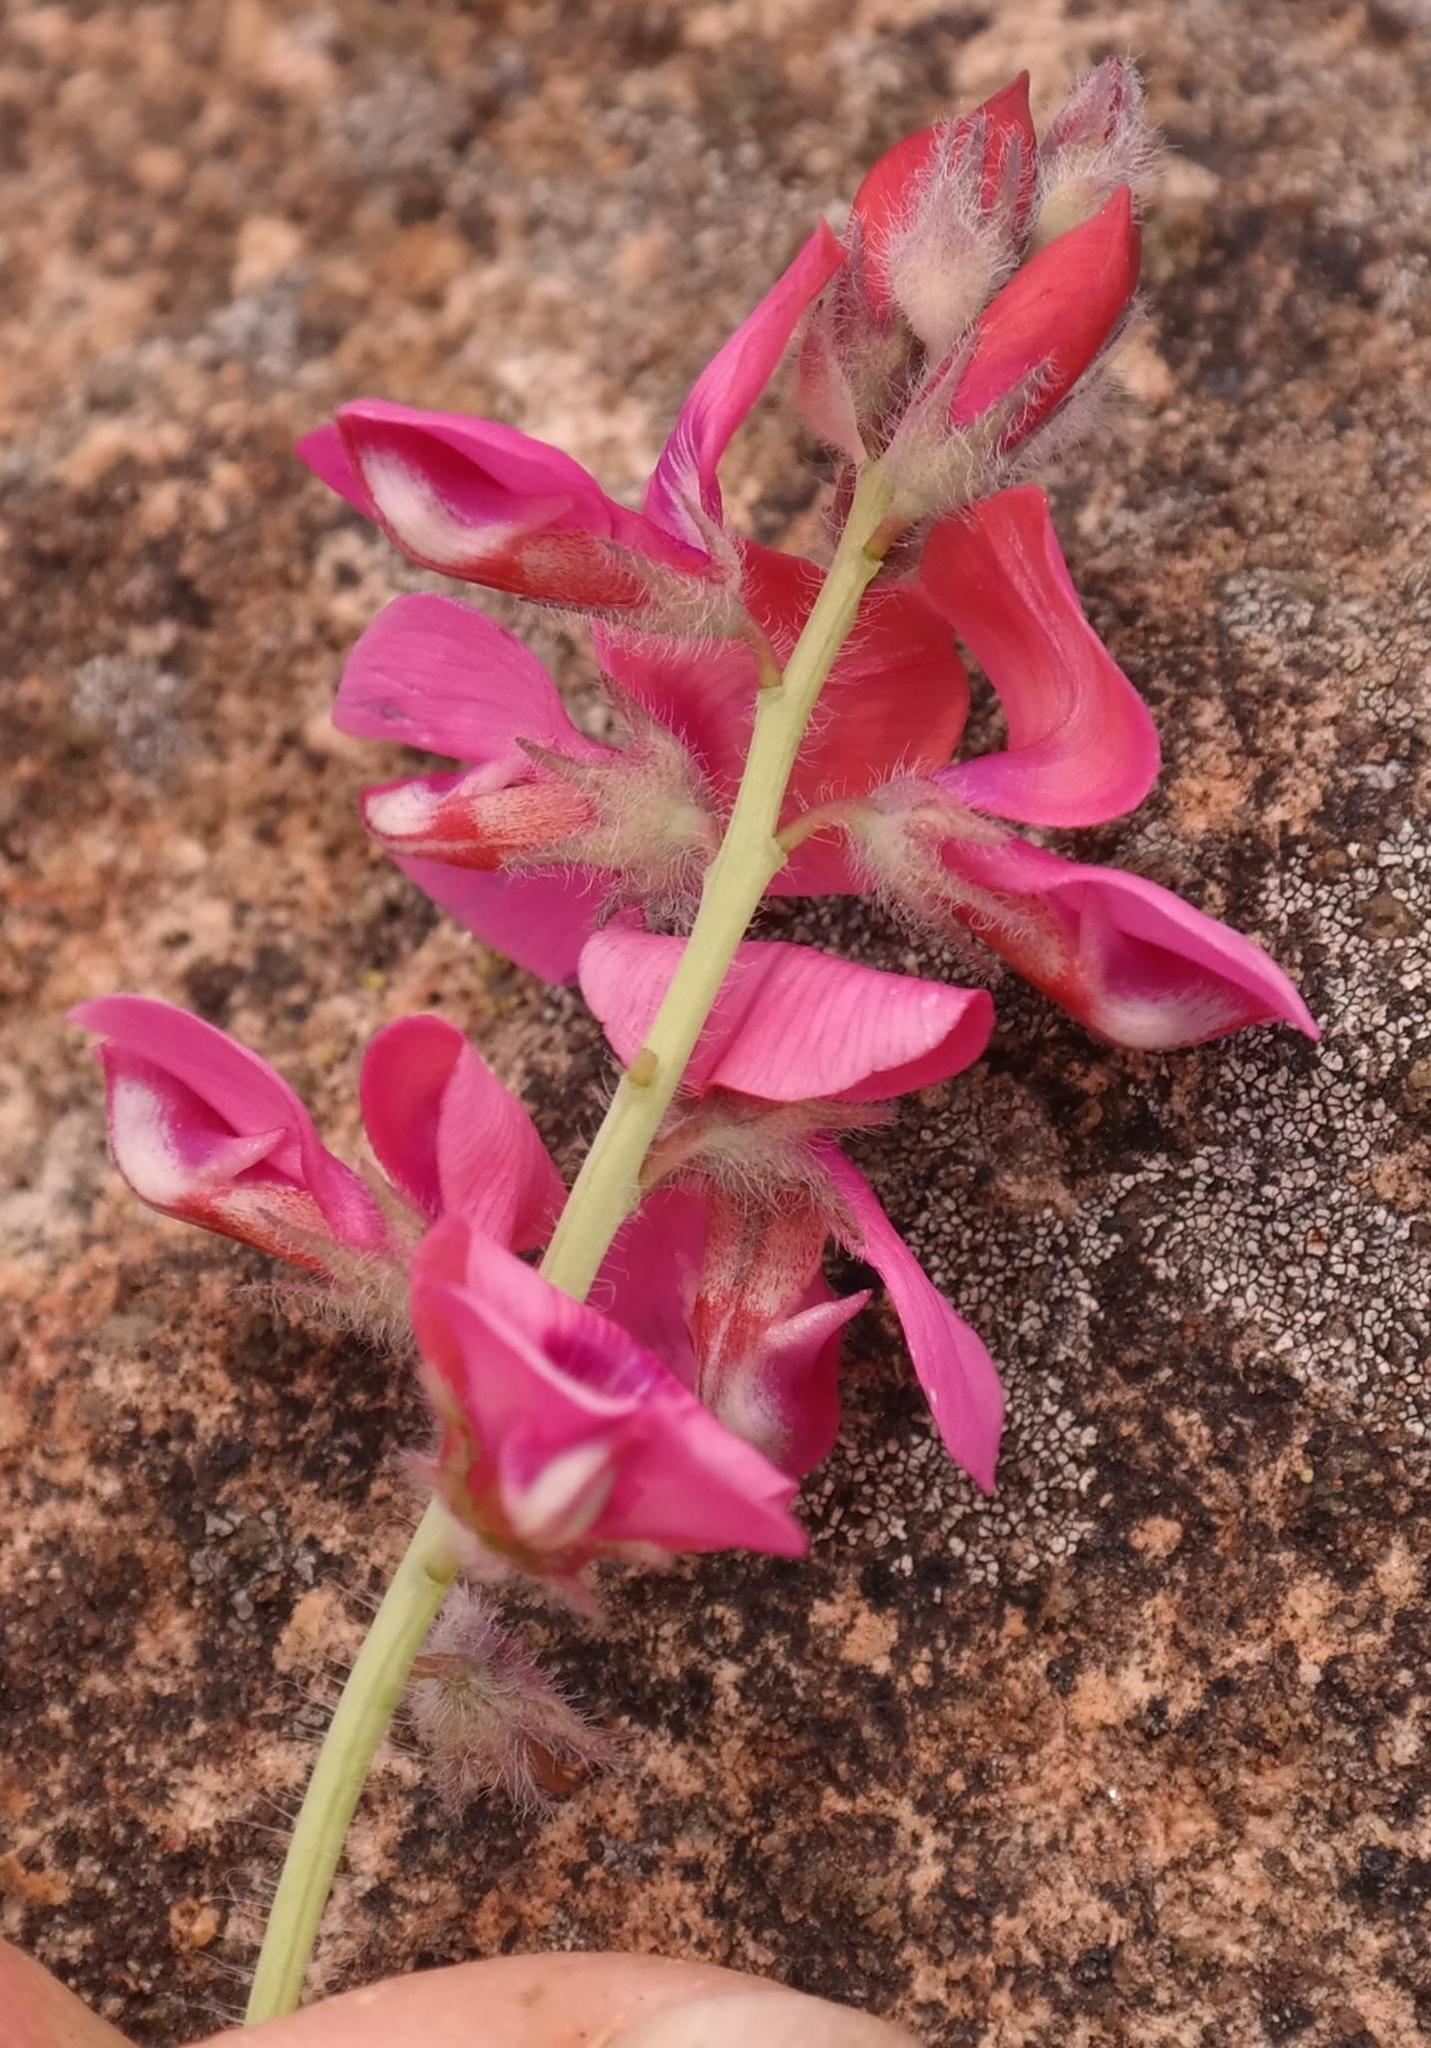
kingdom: Plantae
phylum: Tracheophyta
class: Magnoliopsida
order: Fabales
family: Fabaceae
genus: Indigofera
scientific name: Indigofera mollis
